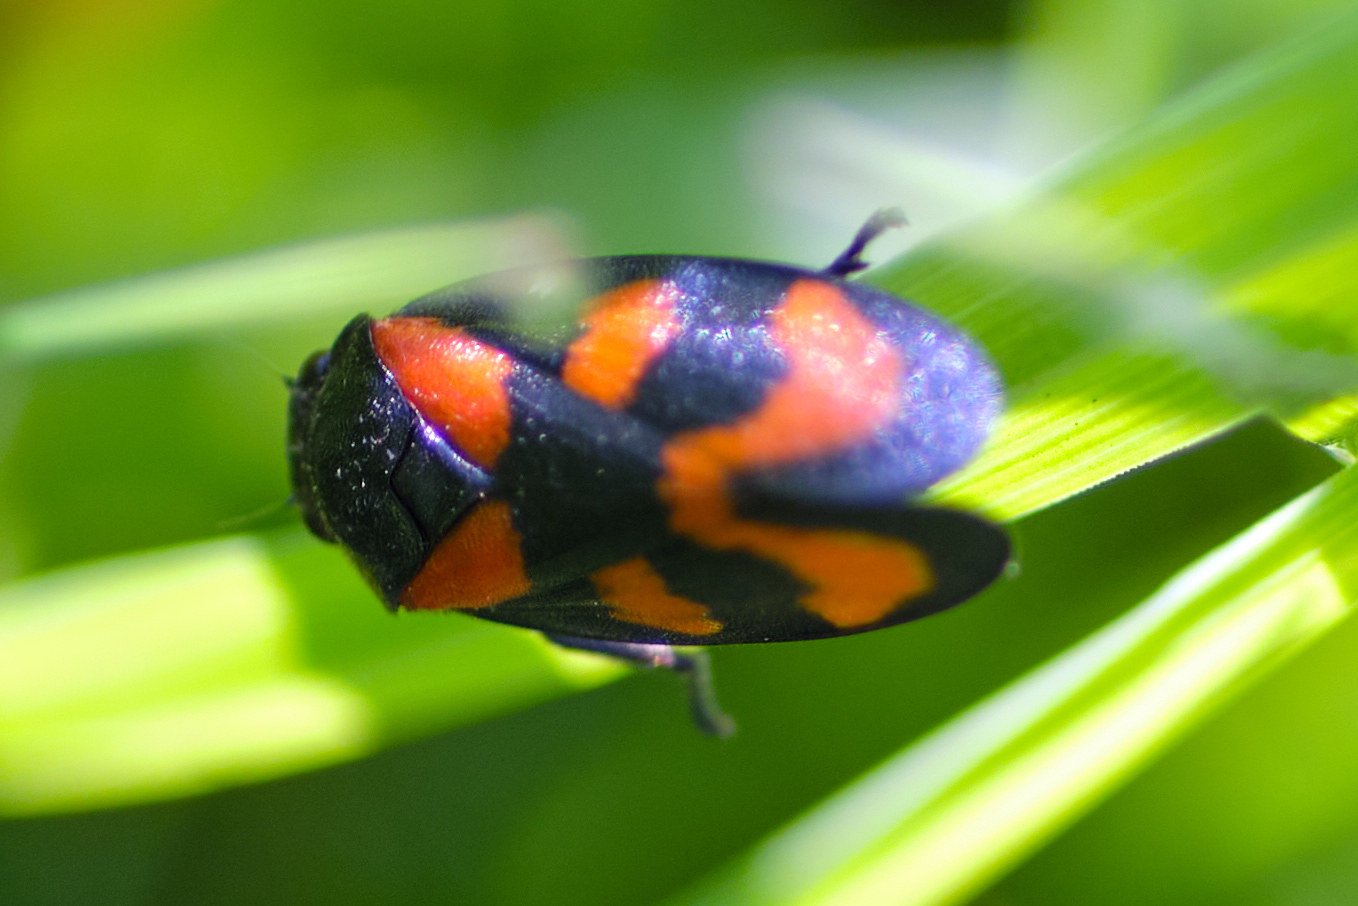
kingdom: Animalia
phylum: Arthropoda
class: Insecta
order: Hemiptera
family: Cercopidae
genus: Cercopis
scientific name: Cercopis vulnerata
